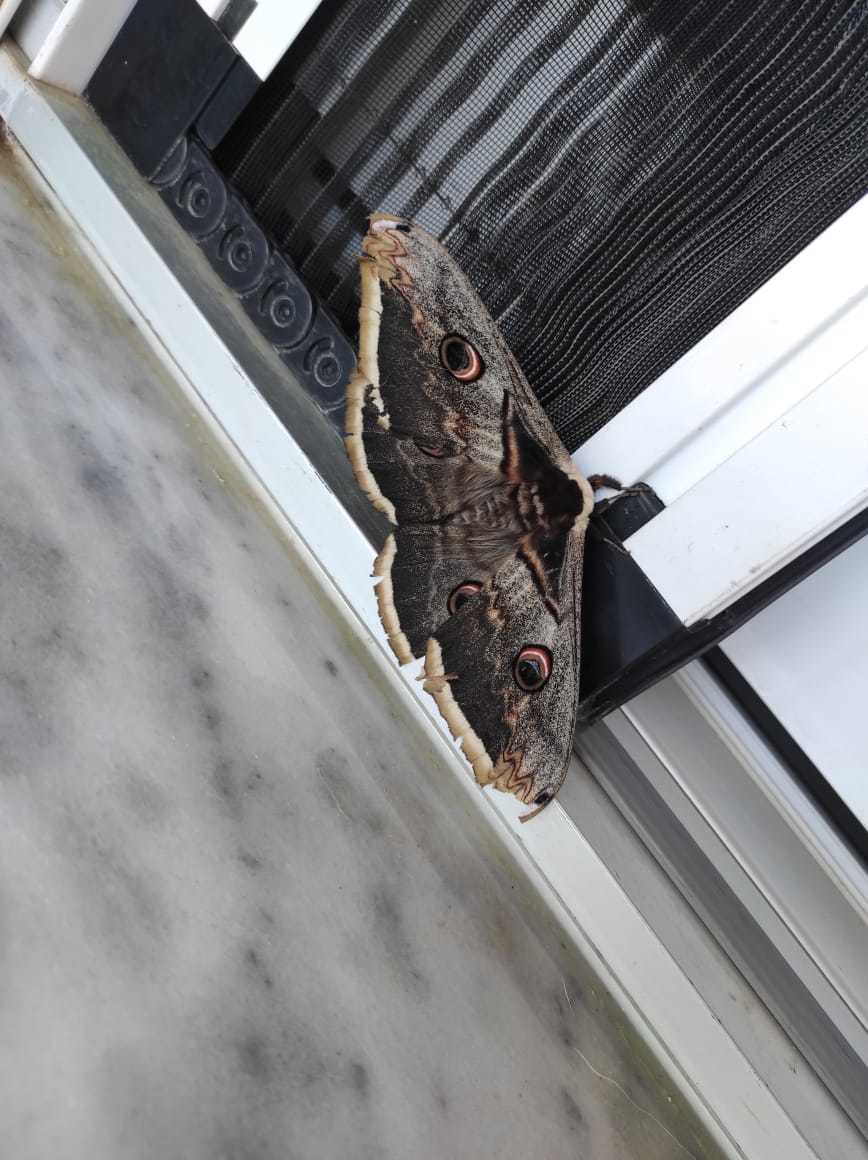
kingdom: Animalia
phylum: Arthropoda
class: Insecta
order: Lepidoptera
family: Saturniidae
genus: Saturnia
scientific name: Saturnia pyri
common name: Great peacock moth
